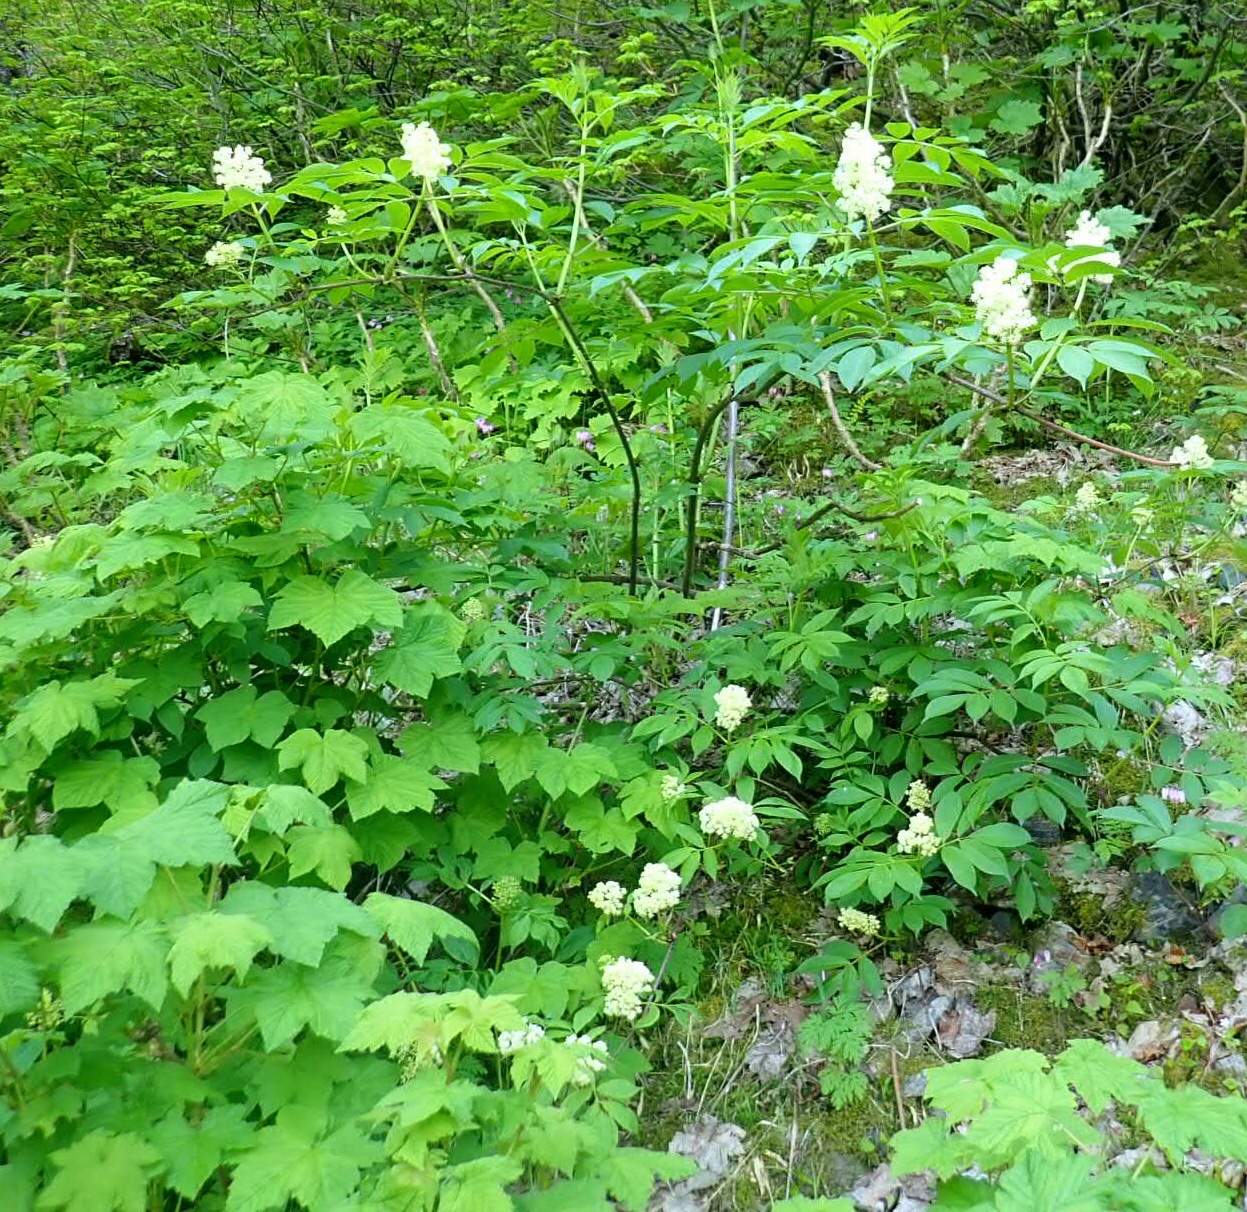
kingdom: Plantae
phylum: Tracheophyta
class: Magnoliopsida
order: Dipsacales
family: Viburnaceae
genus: Sambucus
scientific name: Sambucus racemosa
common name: Red-berried elder
